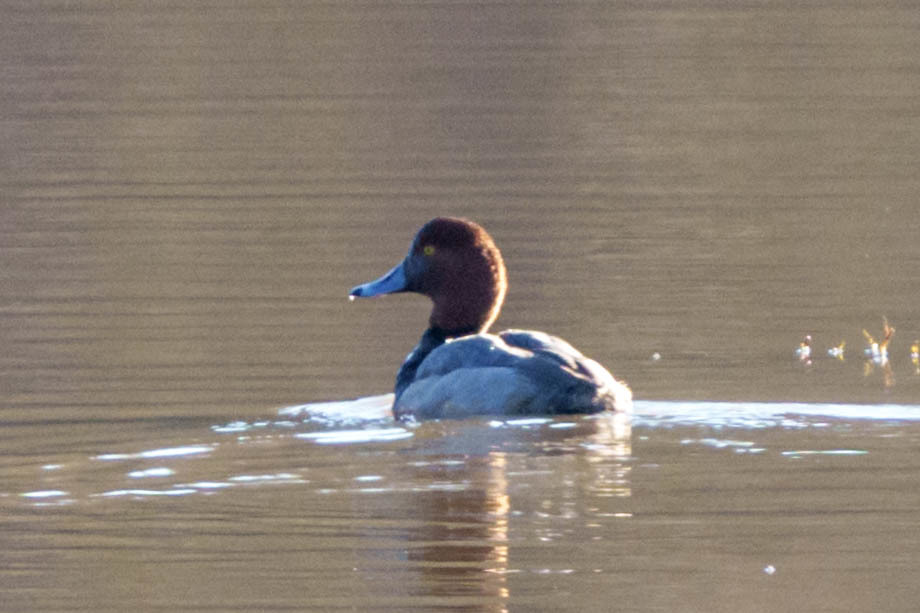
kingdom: Animalia
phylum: Chordata
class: Aves
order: Anseriformes
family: Anatidae
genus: Aythya
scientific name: Aythya americana
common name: Redhead
